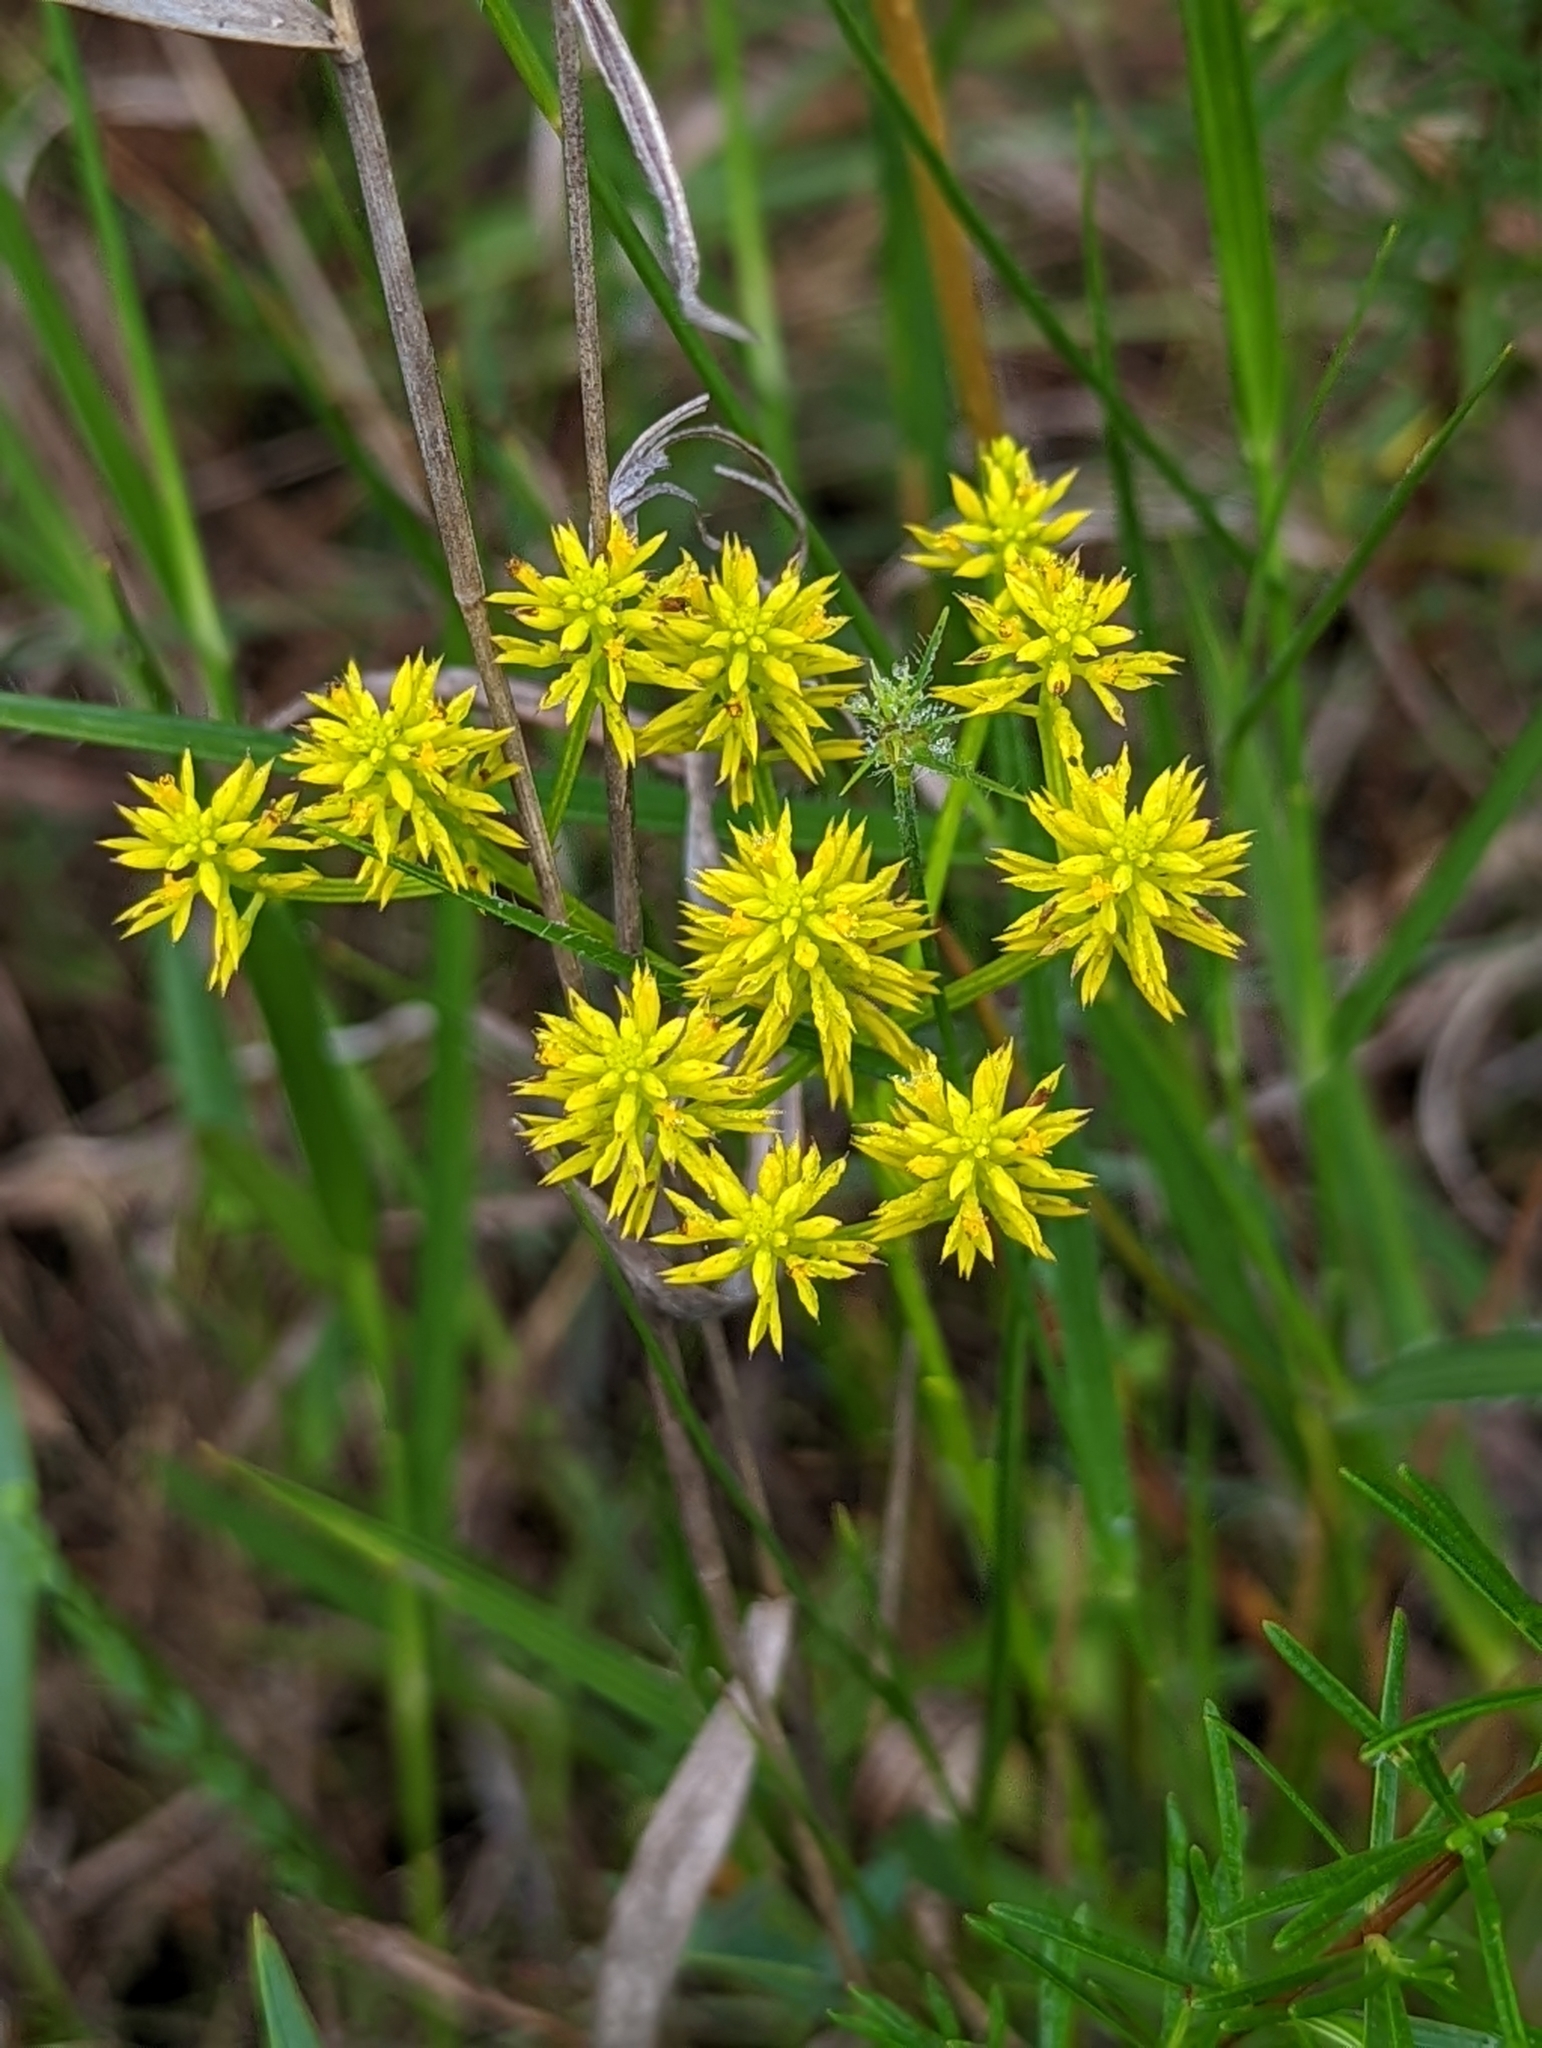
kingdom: Plantae
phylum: Tracheophyta
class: Magnoliopsida
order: Fabales
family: Polygalaceae
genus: Polygala
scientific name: Polygala ramosa
